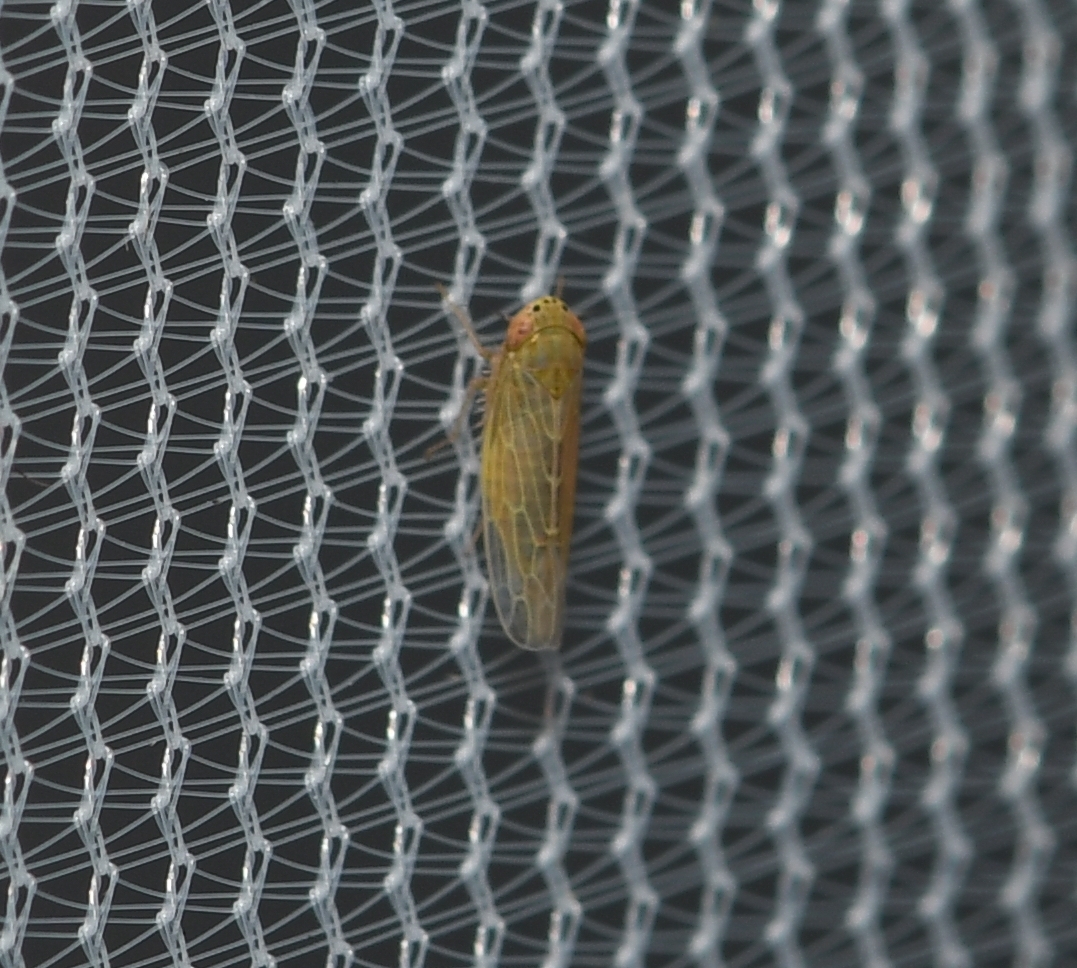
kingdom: Animalia
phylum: Arthropoda
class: Insecta
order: Hemiptera
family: Cicadellidae
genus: Graminella
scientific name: Graminella sonora
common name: Lesser lawn leafhopper
